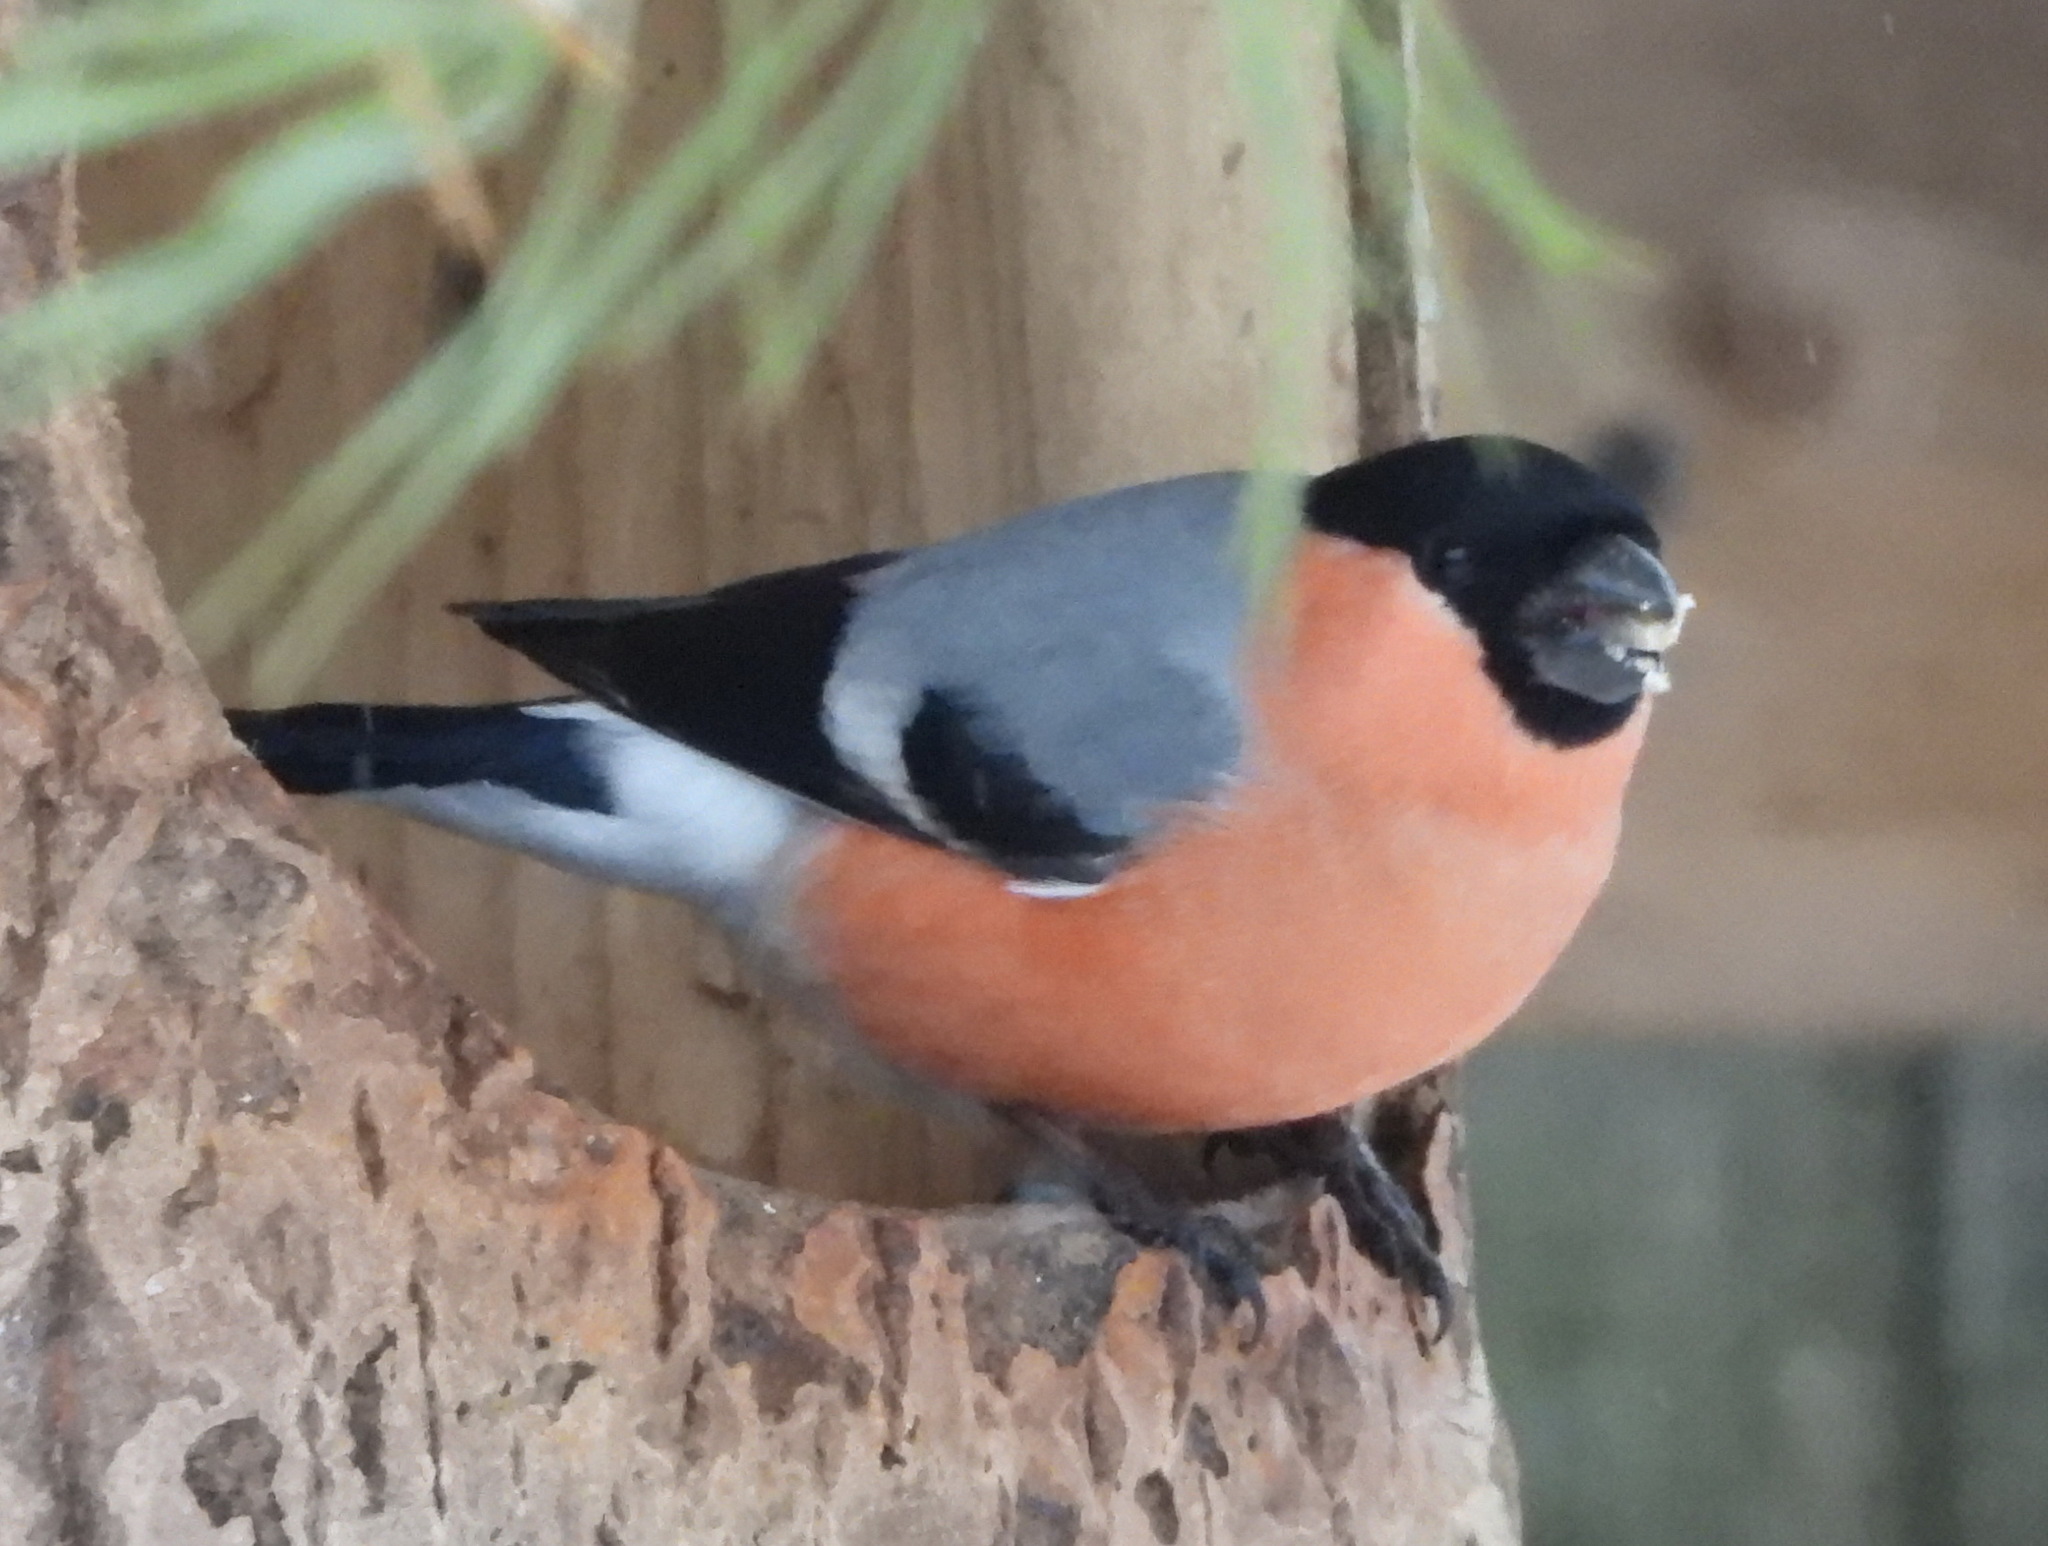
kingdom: Animalia
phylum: Chordata
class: Aves
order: Passeriformes
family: Fringillidae
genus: Pyrrhula
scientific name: Pyrrhula pyrrhula
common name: Eurasian bullfinch
